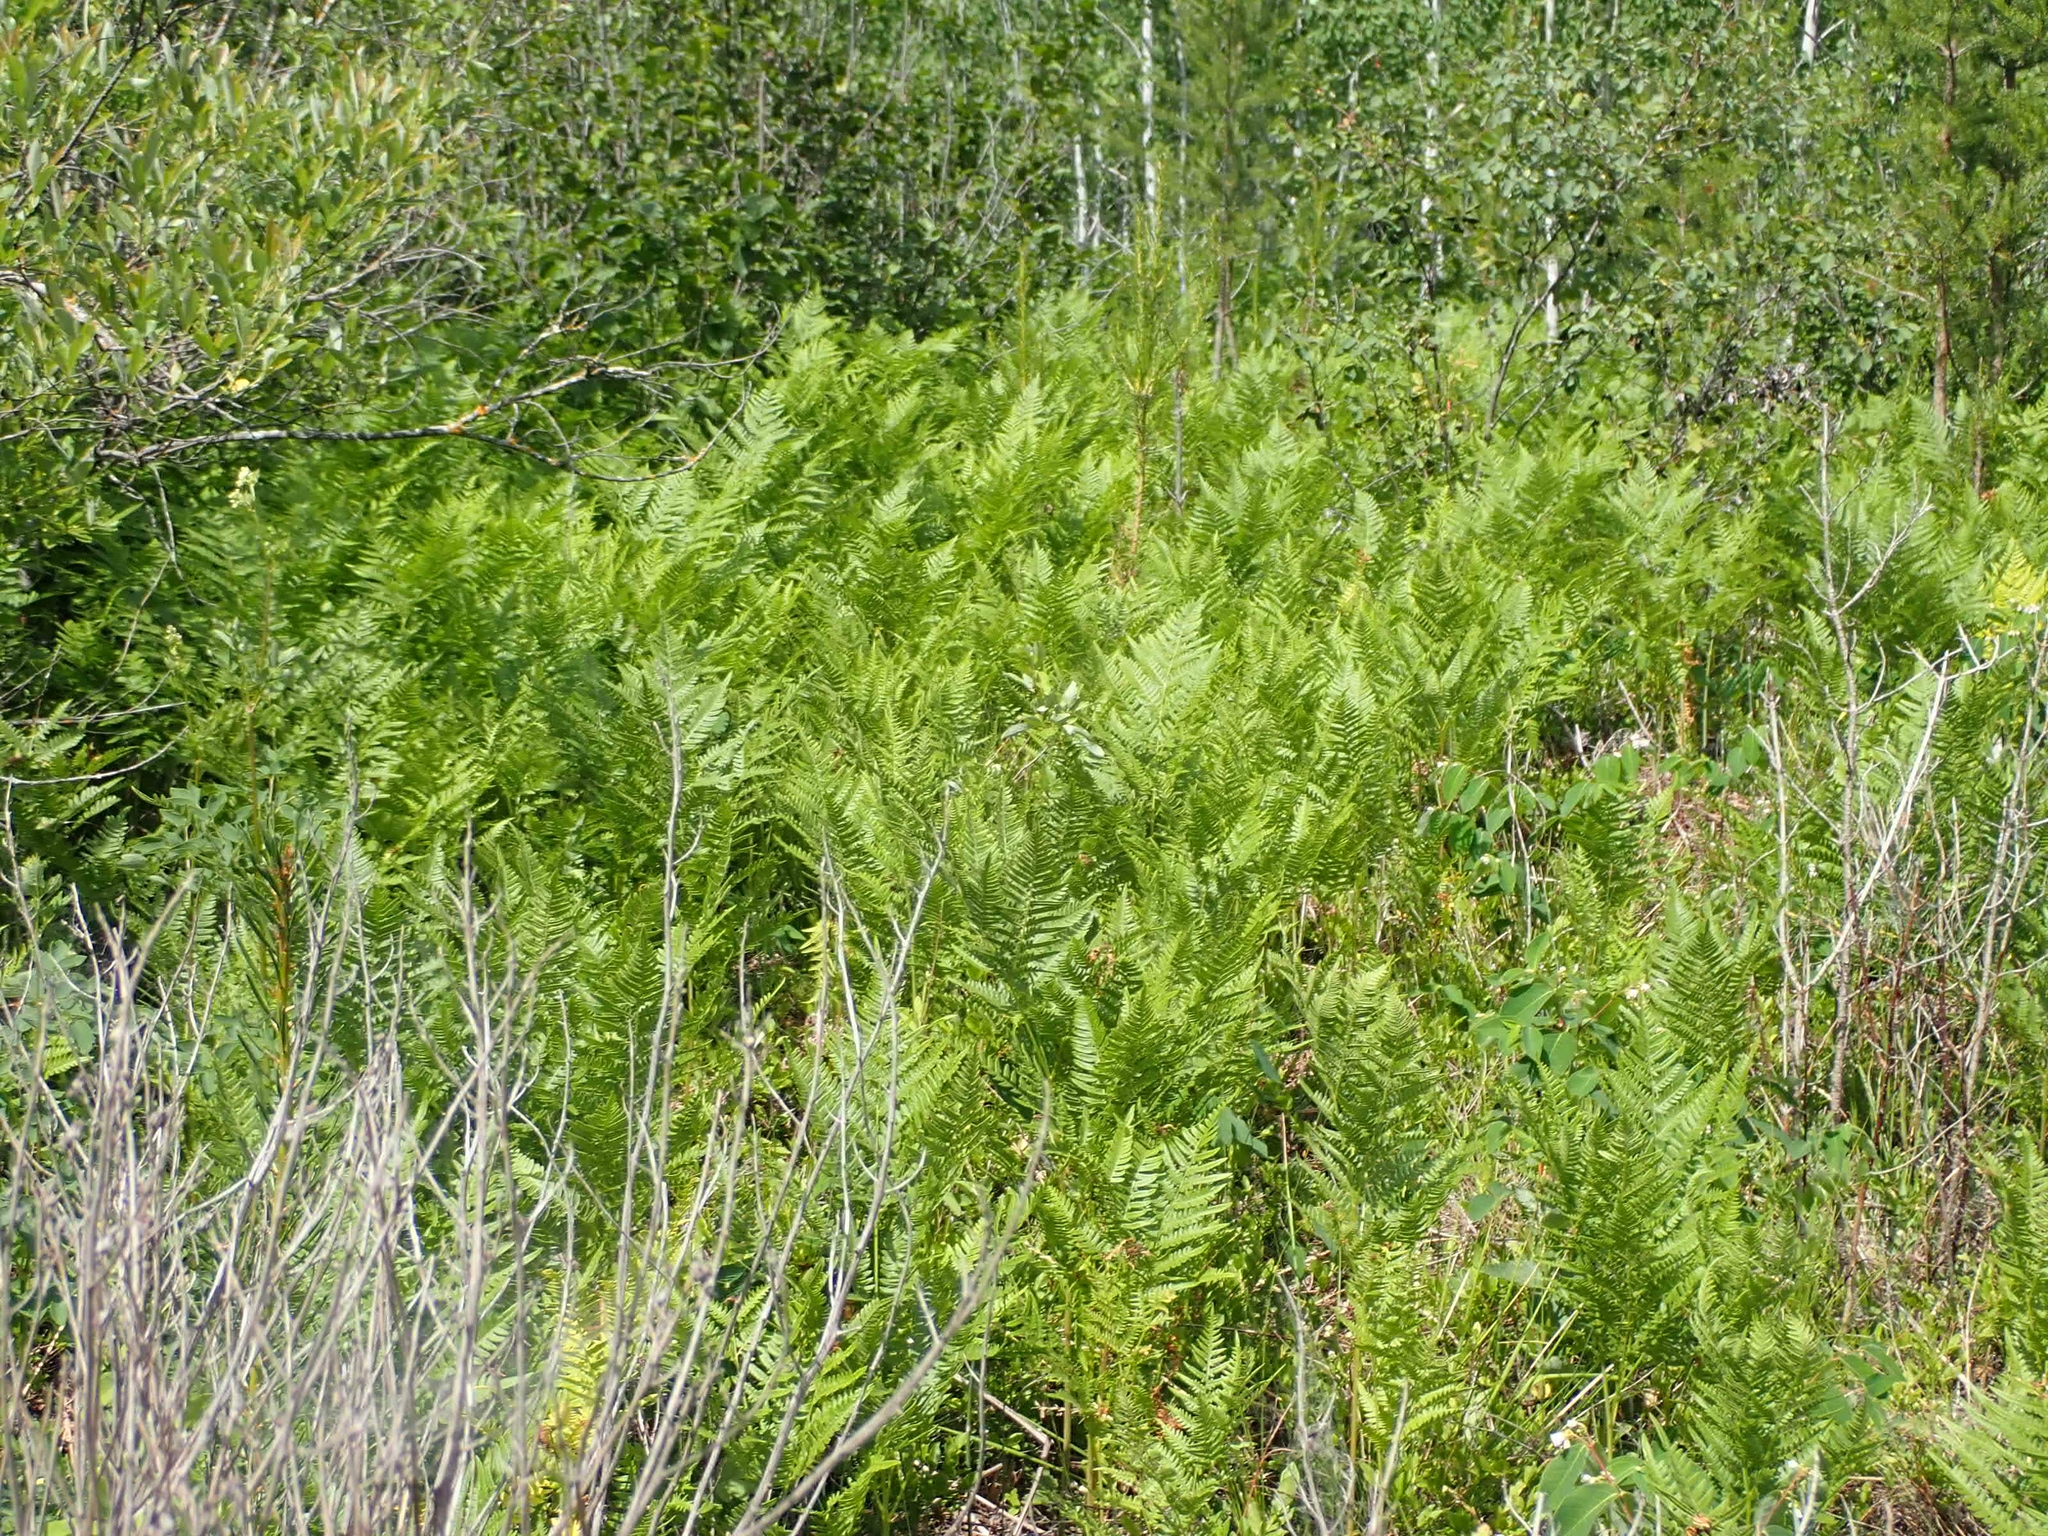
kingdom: Plantae
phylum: Tracheophyta
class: Polypodiopsida
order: Polypodiales
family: Dennstaedtiaceae
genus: Pteridium
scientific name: Pteridium aquilinum
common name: Bracken
